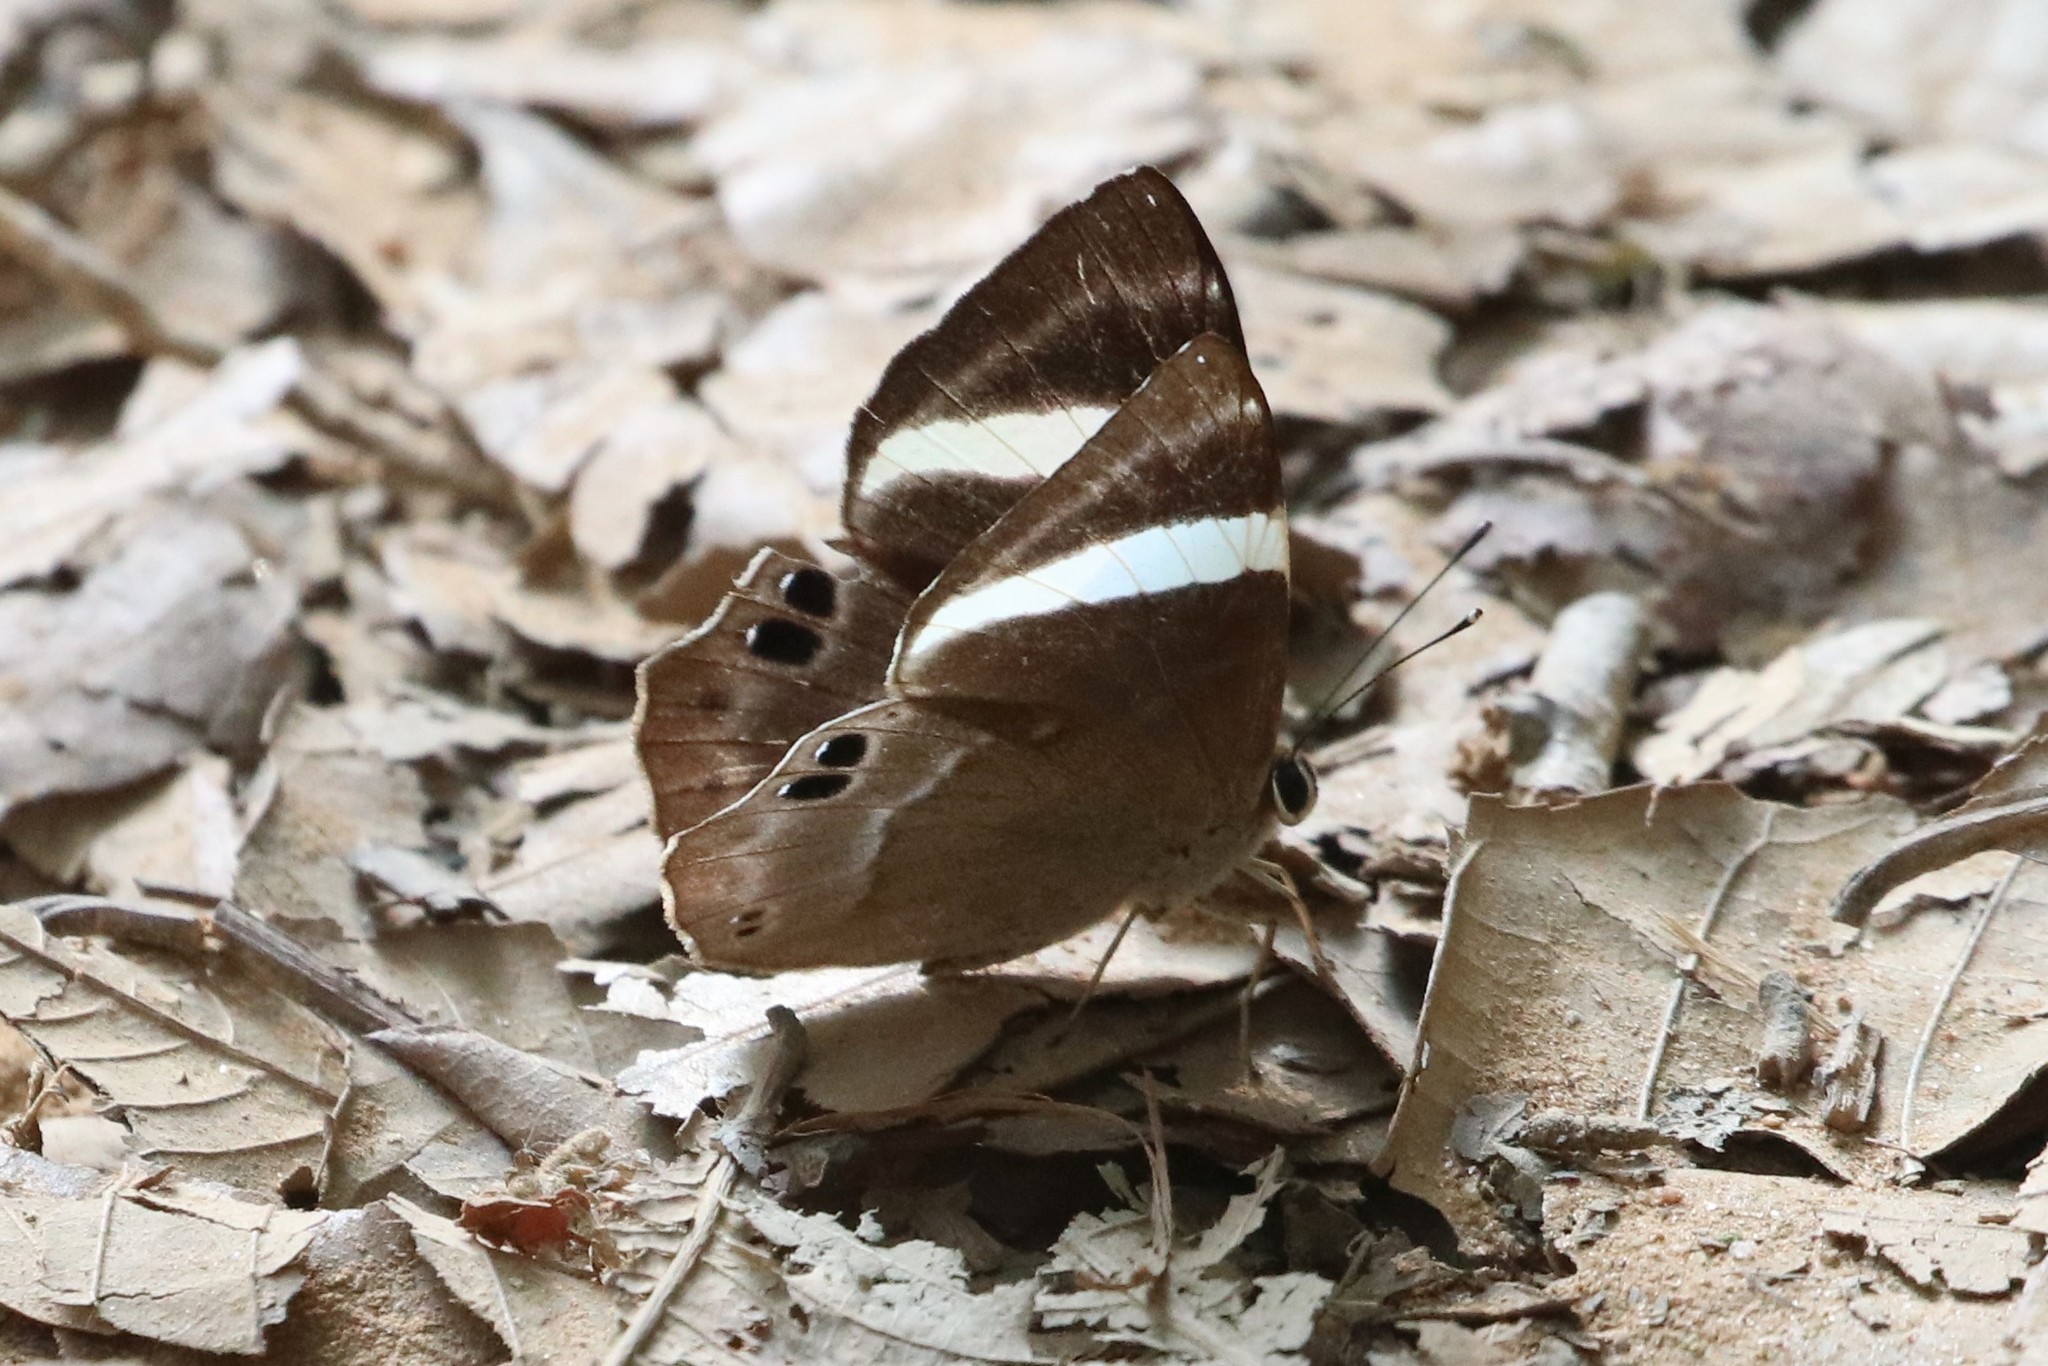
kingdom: Animalia
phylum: Arthropoda
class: Insecta
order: Lepidoptera
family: Lycaenidae
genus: Abisara
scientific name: Abisara fylla
